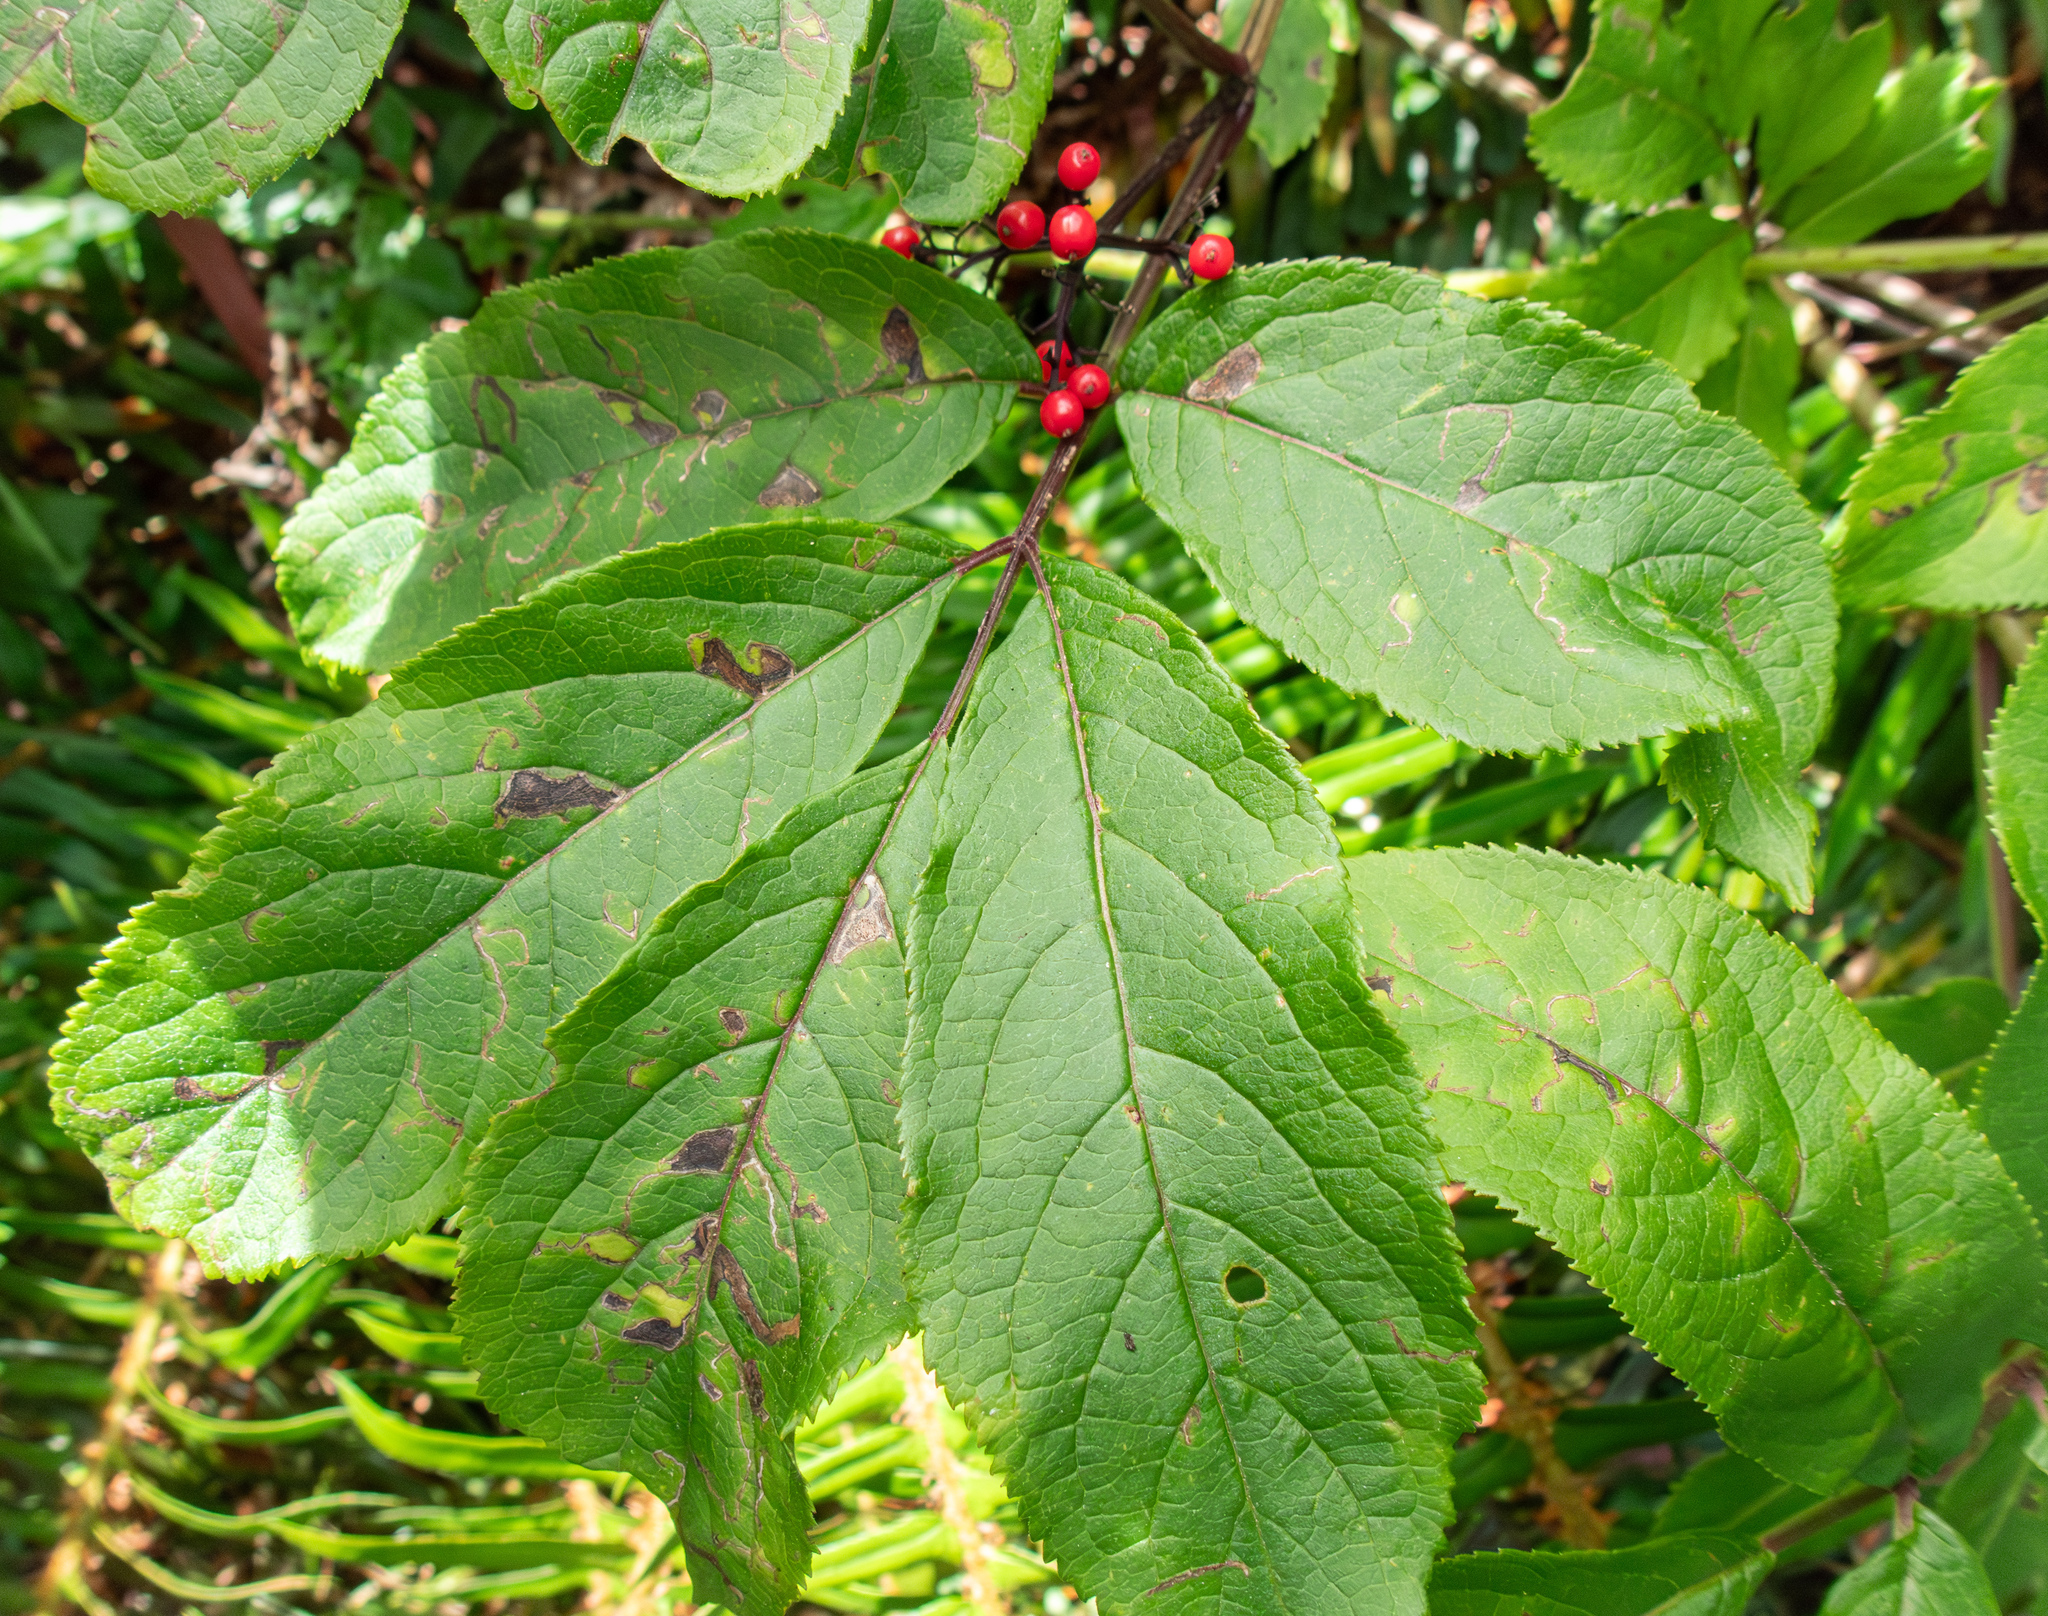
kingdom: Plantae
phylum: Tracheophyta
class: Magnoliopsida
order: Dipsacales
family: Viburnaceae
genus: Sambucus
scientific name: Sambucus racemosa
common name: Red-berried elder
